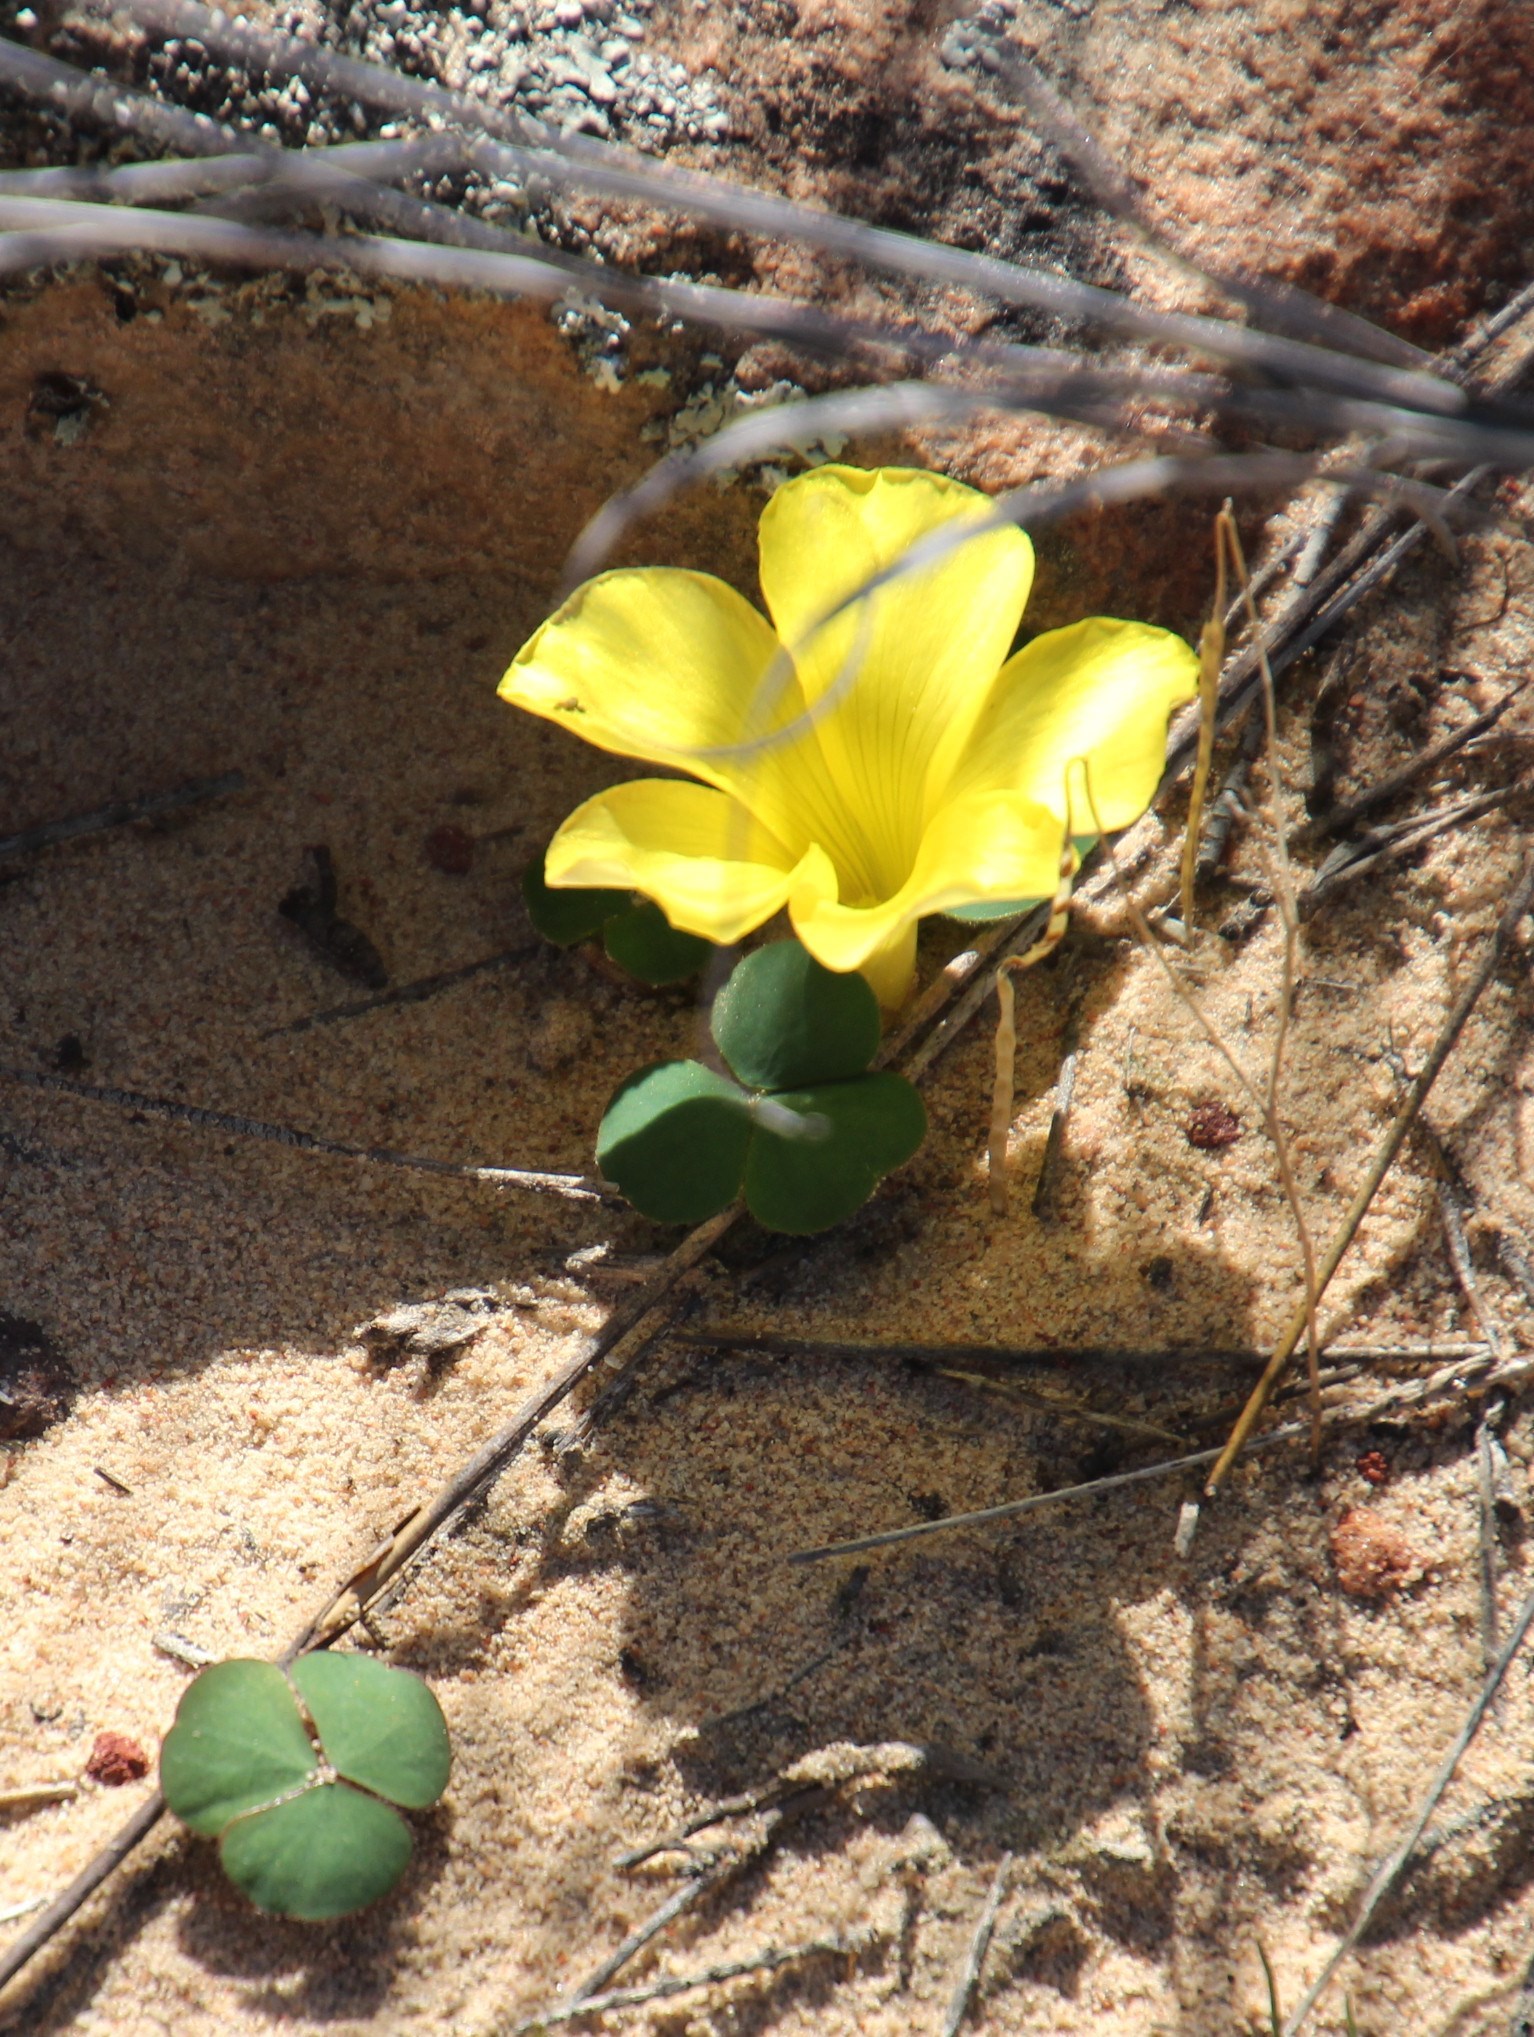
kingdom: Plantae
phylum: Tracheophyta
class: Magnoliopsida
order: Oxalidales
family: Oxalidaceae
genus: Oxalis
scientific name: Oxalis luteola
